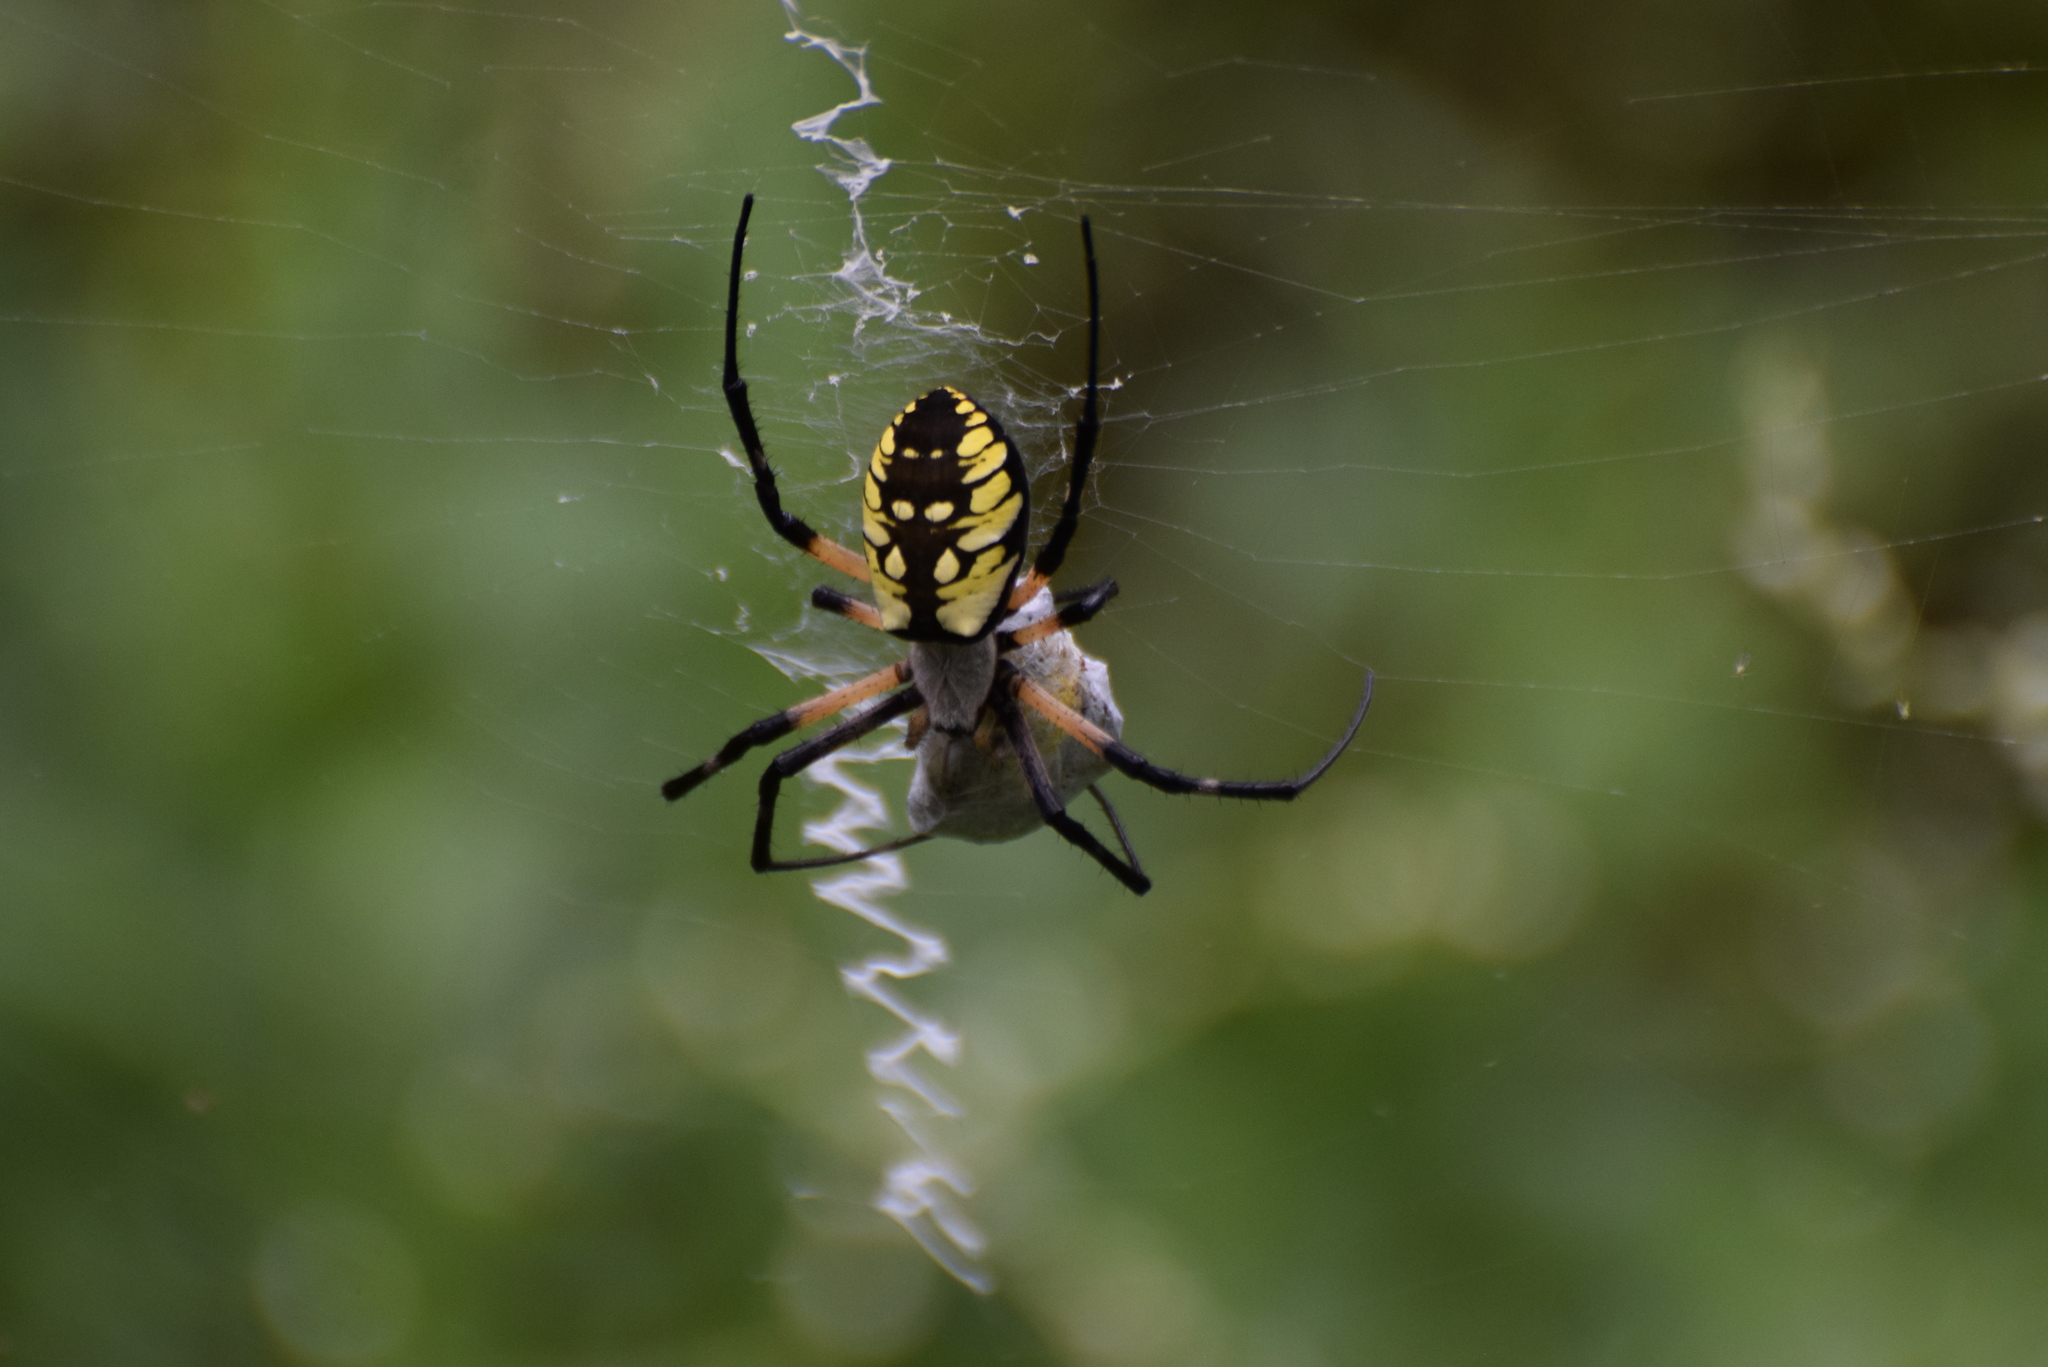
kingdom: Animalia
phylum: Arthropoda
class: Arachnida
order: Araneae
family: Araneidae
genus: Argiope
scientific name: Argiope aurantia
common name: Orb weavers
